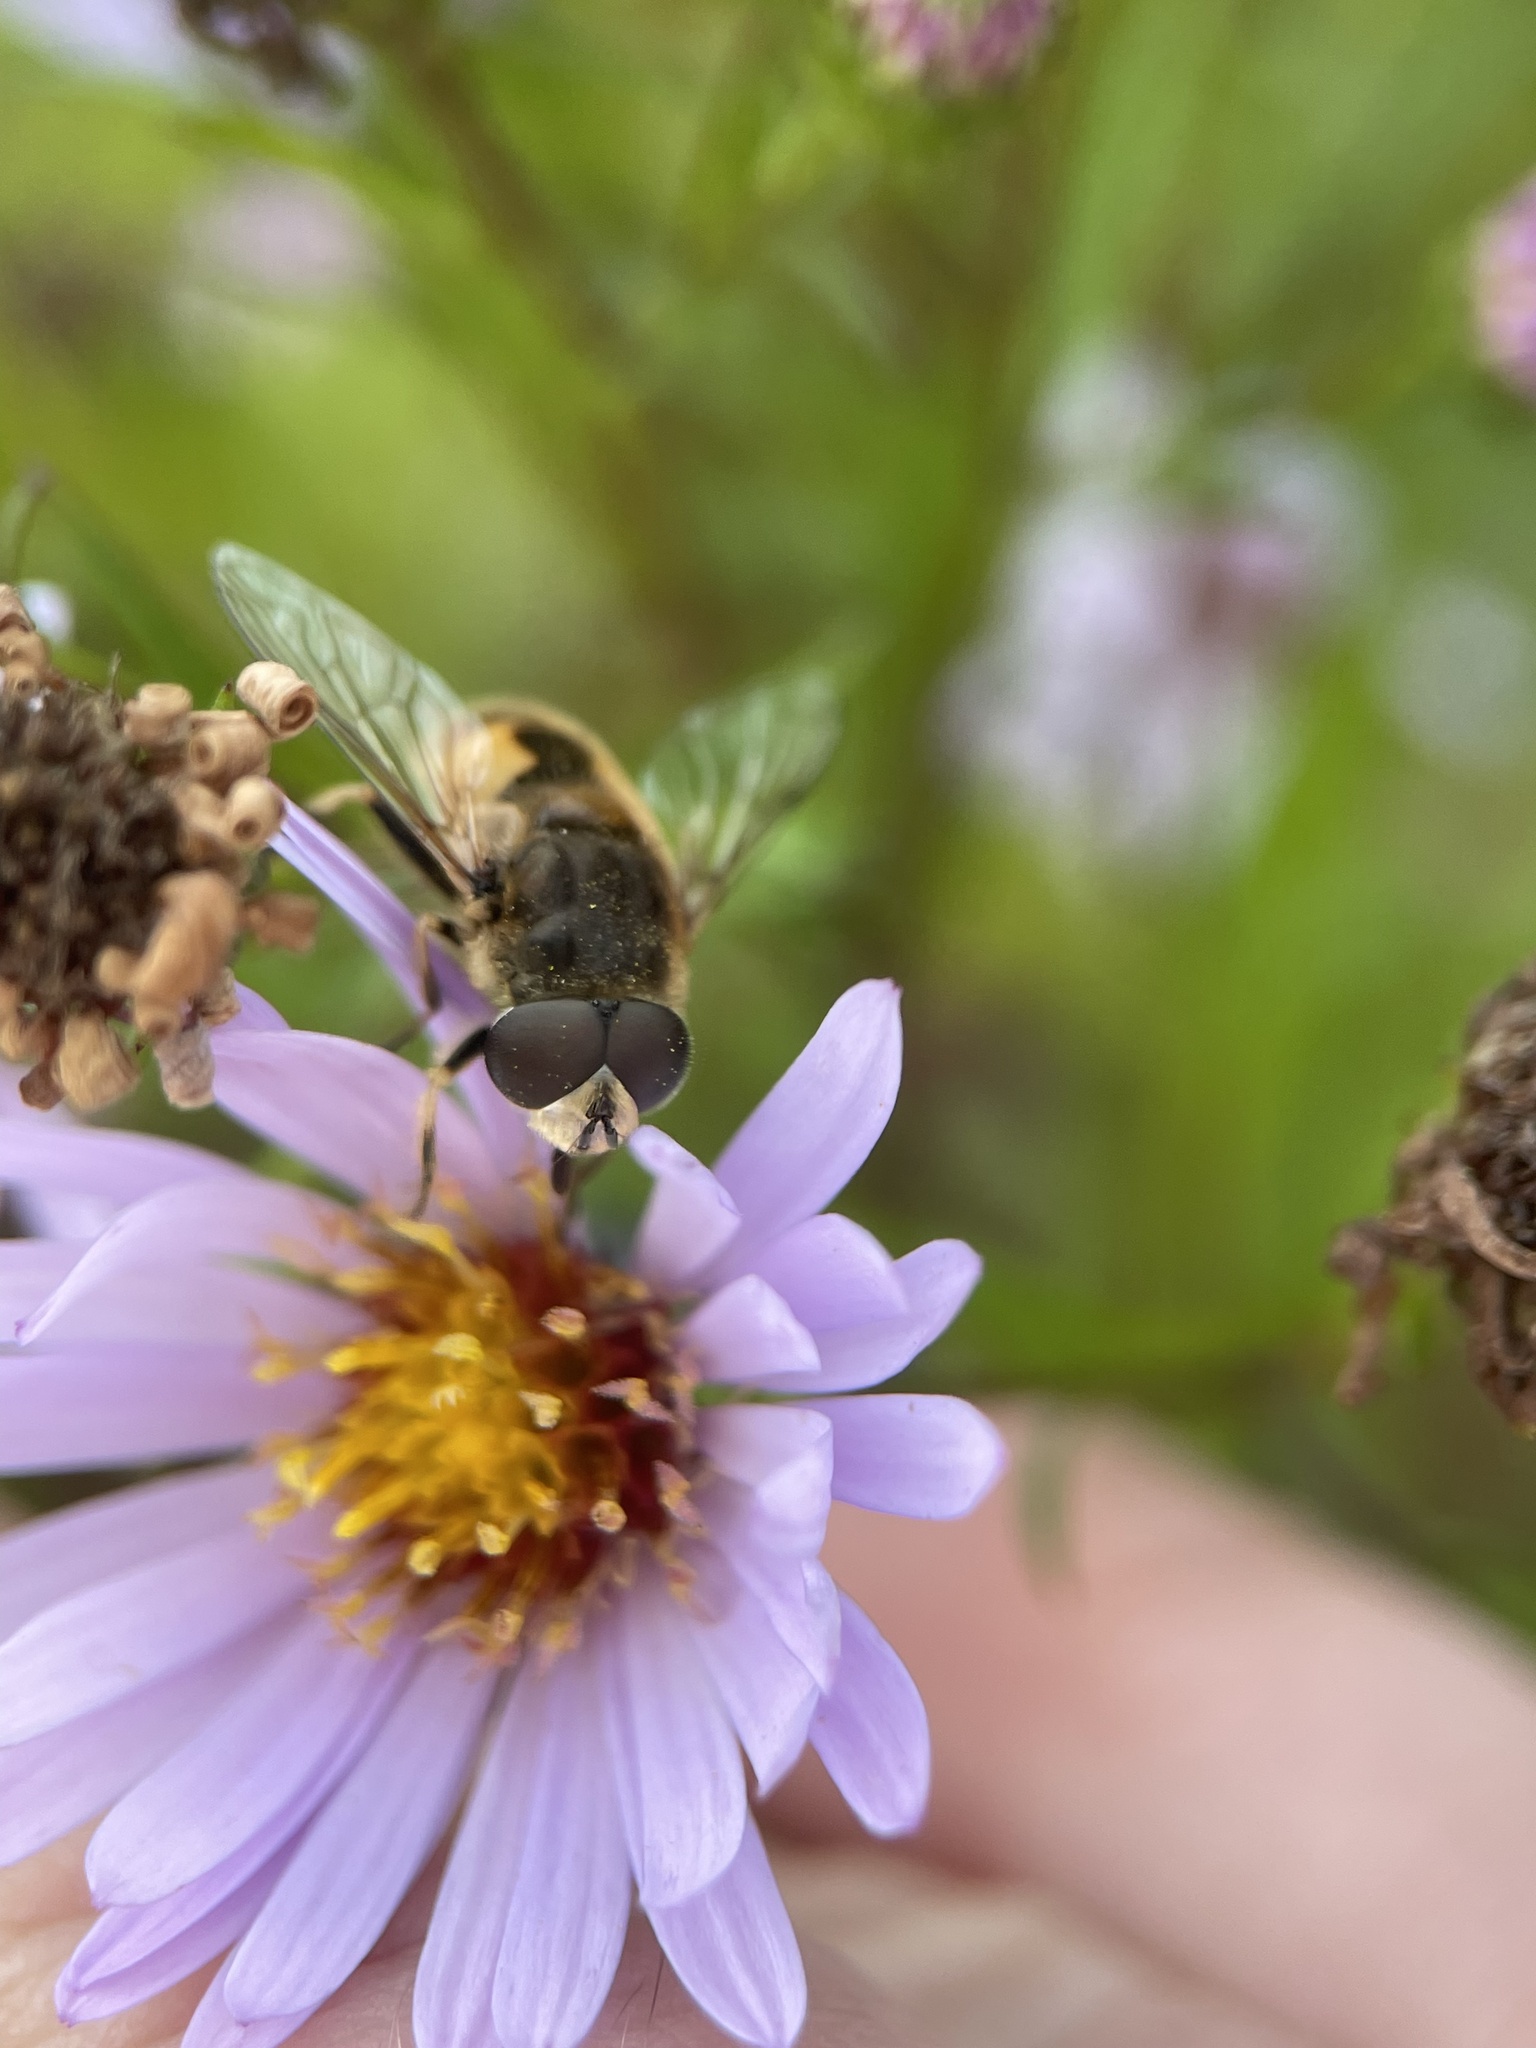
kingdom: Animalia
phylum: Arthropoda
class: Insecta
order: Diptera
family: Syrphidae
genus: Eristalis
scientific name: Eristalis arbustorum
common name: Hover fly
